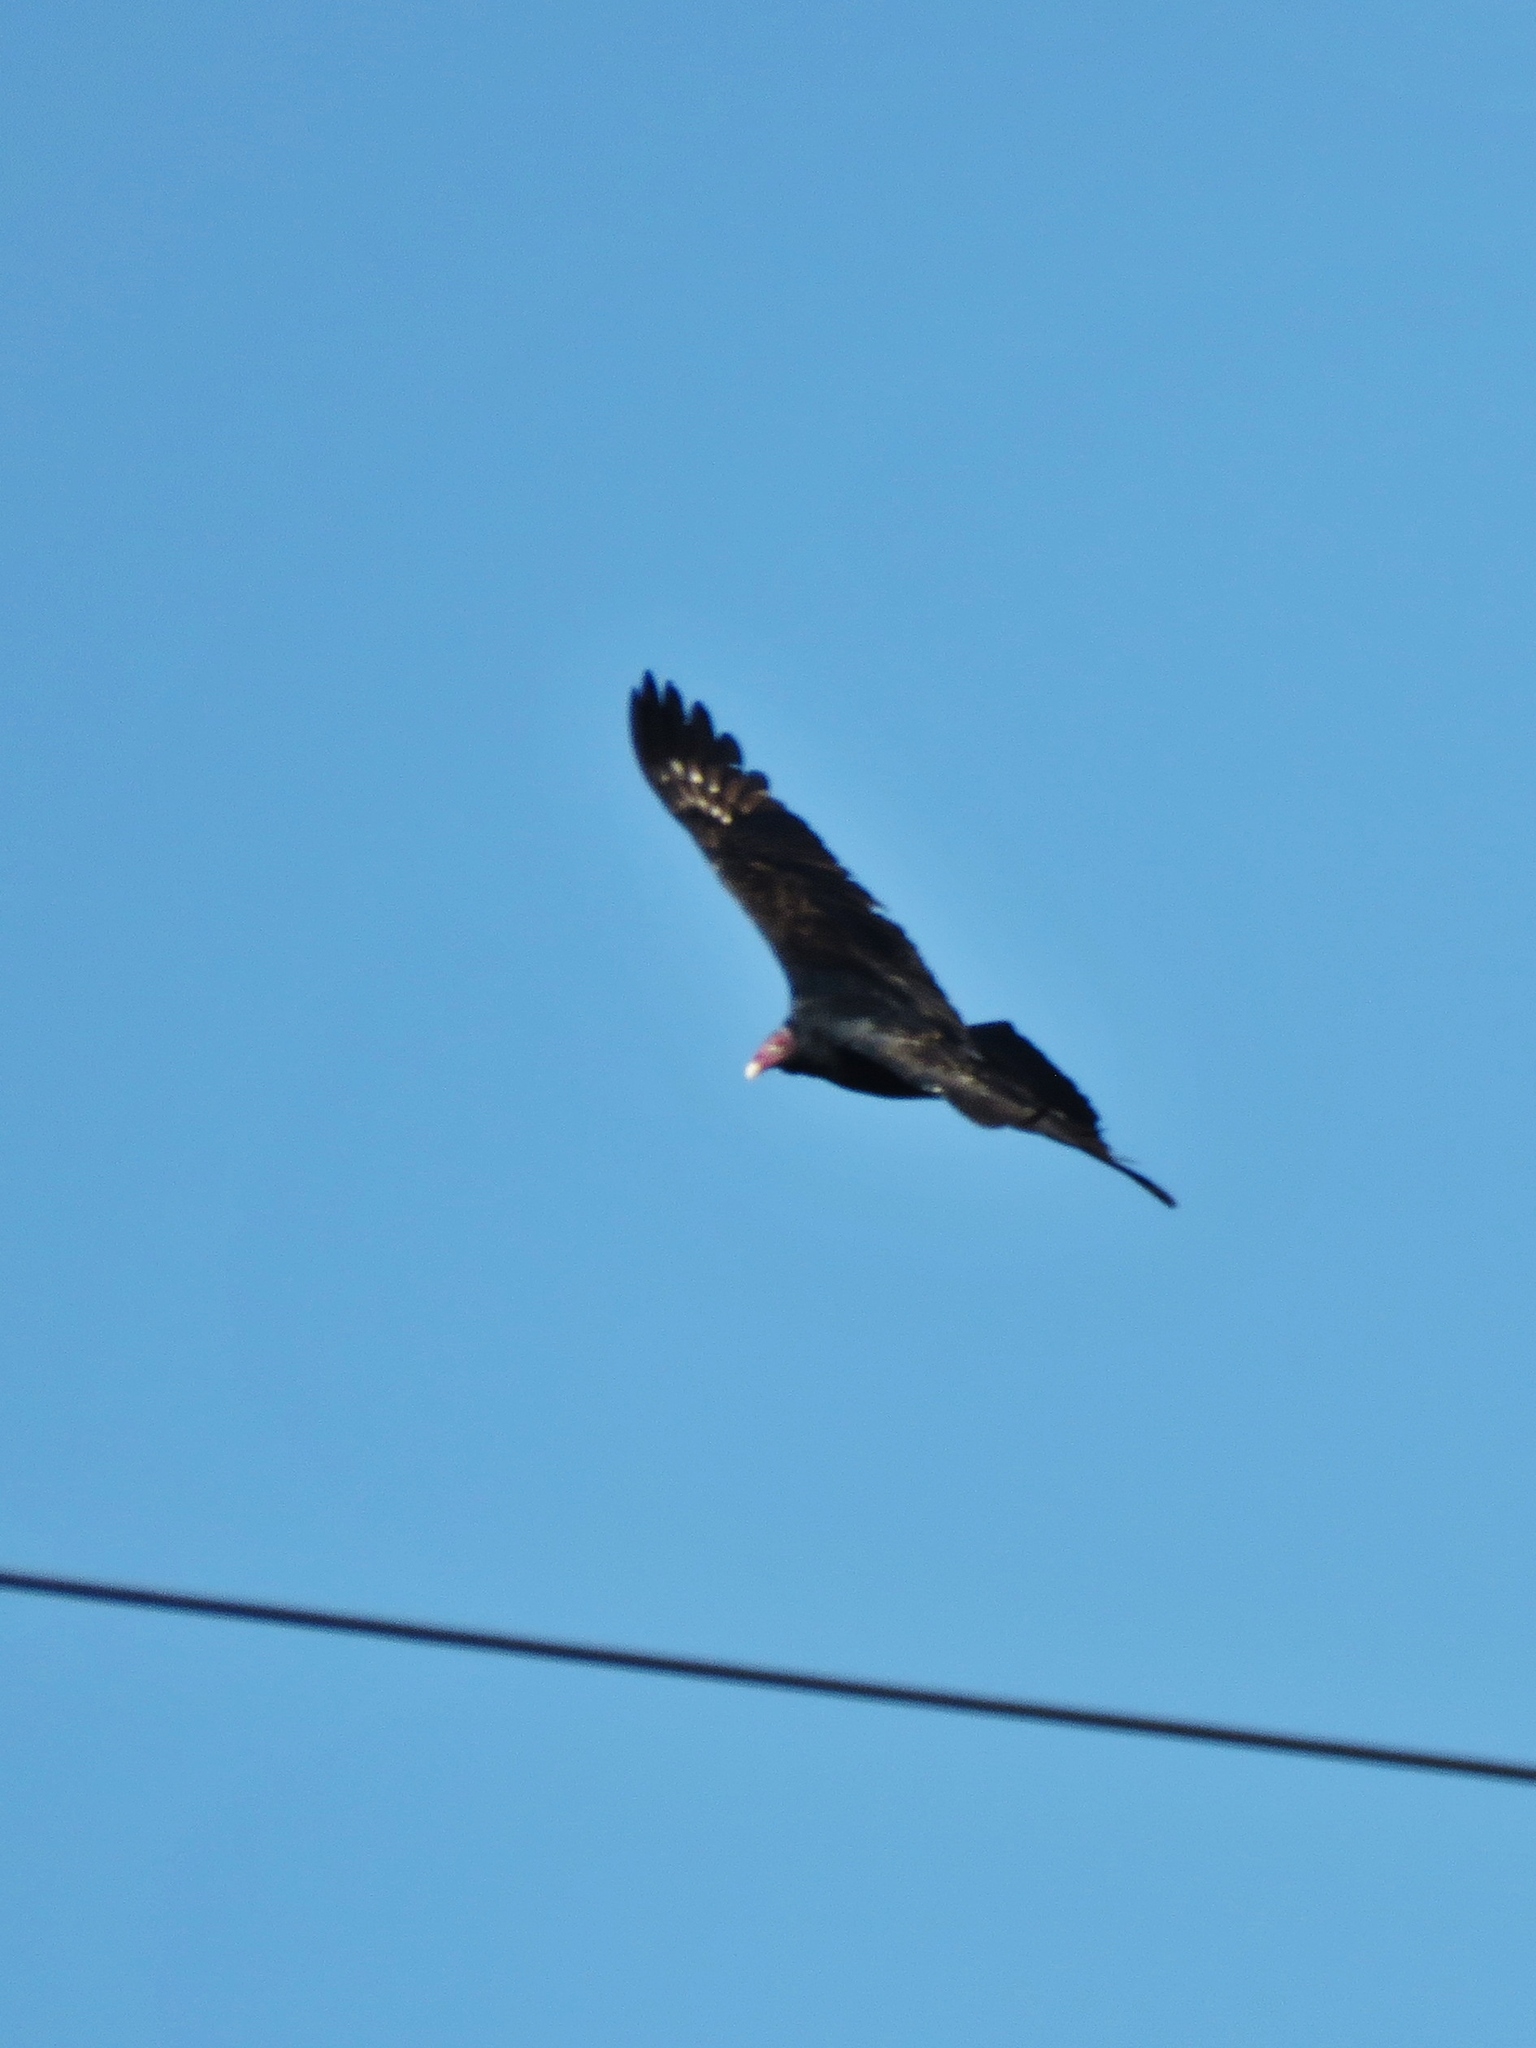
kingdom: Animalia
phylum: Chordata
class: Aves
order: Accipitriformes
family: Cathartidae
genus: Cathartes
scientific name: Cathartes aura
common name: Turkey vulture
